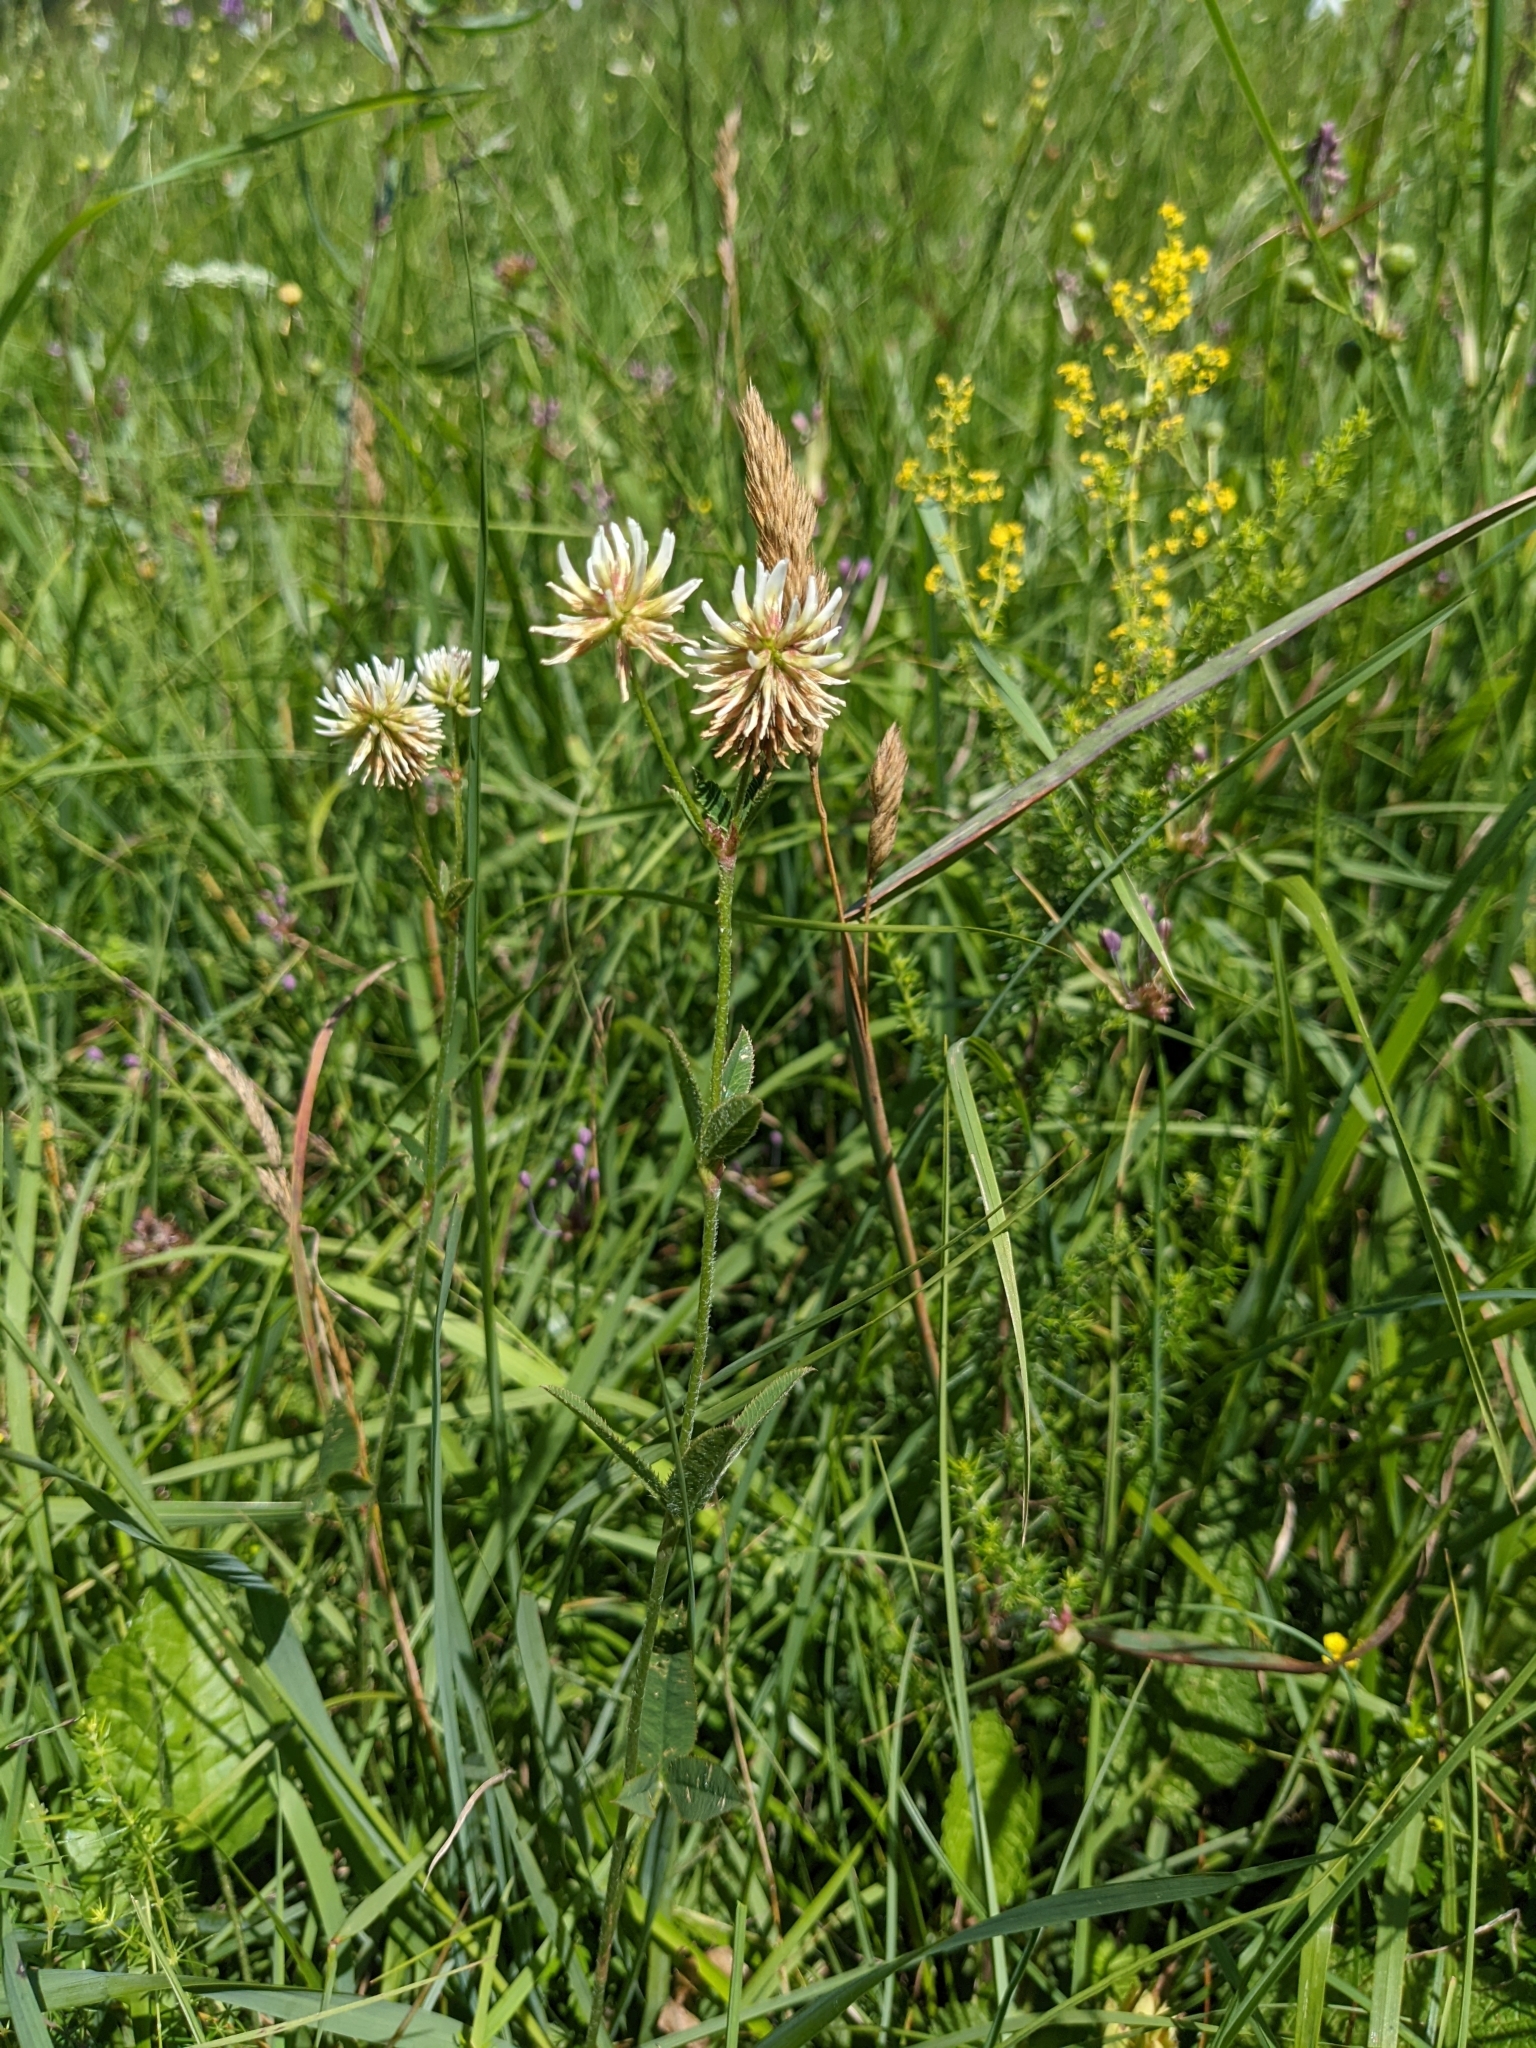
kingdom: Plantae
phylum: Tracheophyta
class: Magnoliopsida
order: Fabales
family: Fabaceae
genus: Trifolium
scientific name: Trifolium montanum
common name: Mountain clover
